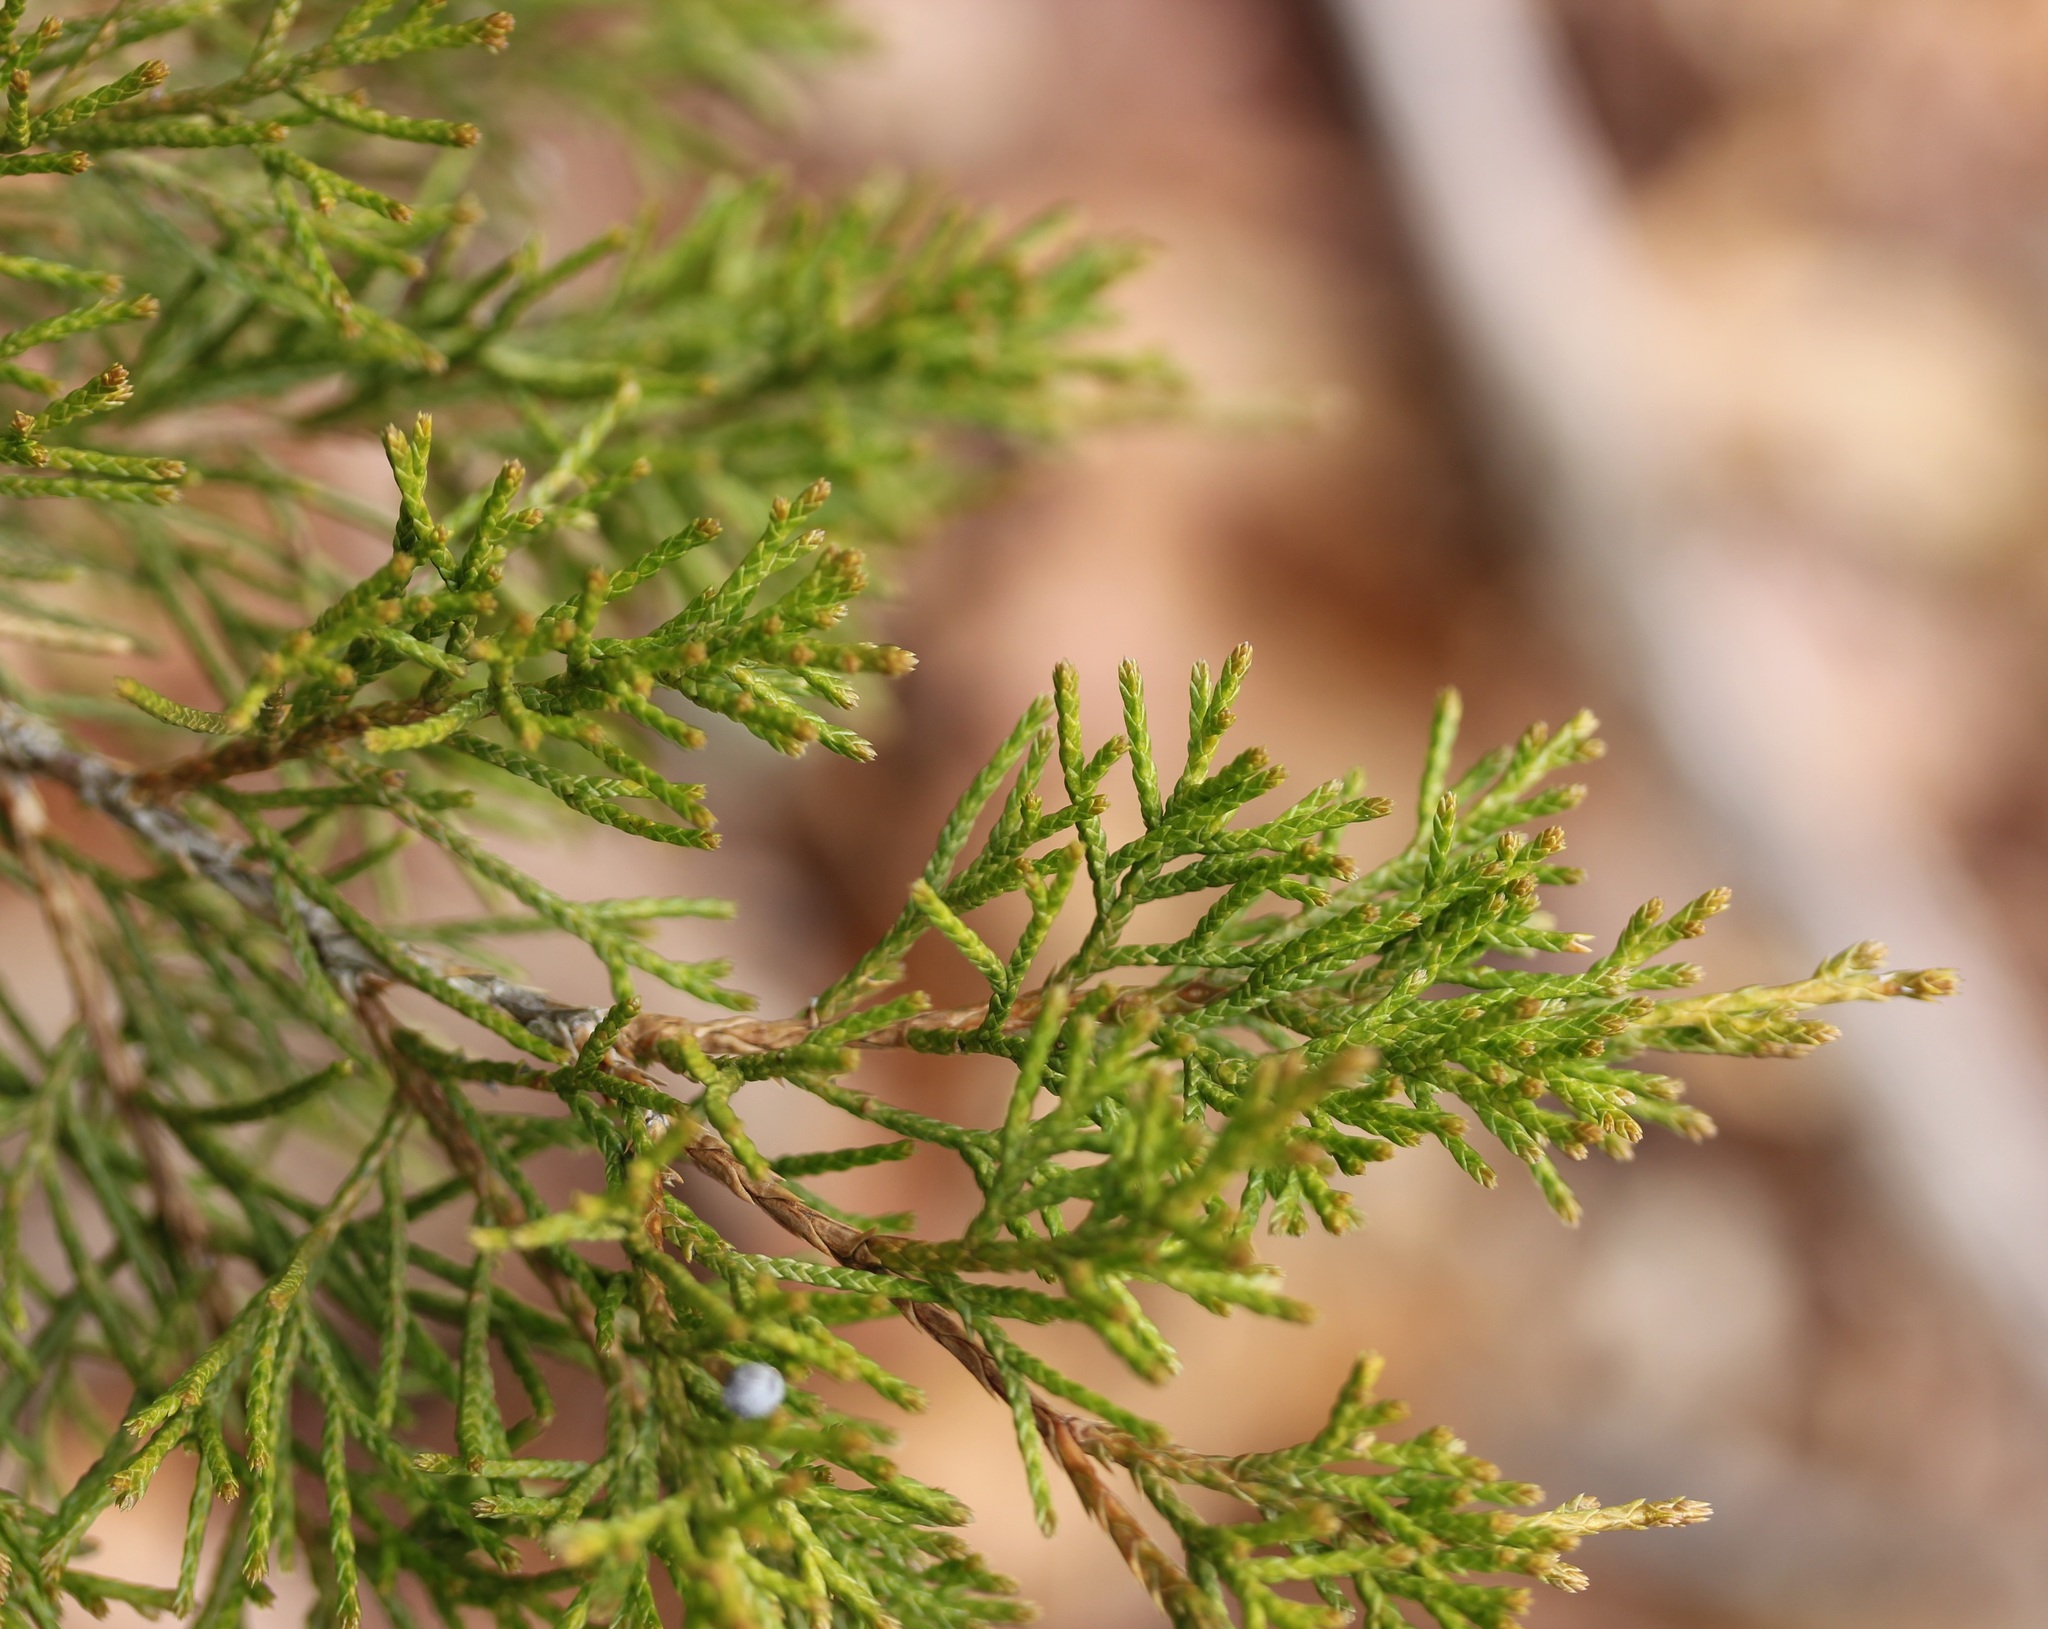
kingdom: Plantae
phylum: Tracheophyta
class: Pinopsida
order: Pinales
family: Cupressaceae
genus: Juniperus
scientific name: Juniperus virginiana
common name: Red juniper
